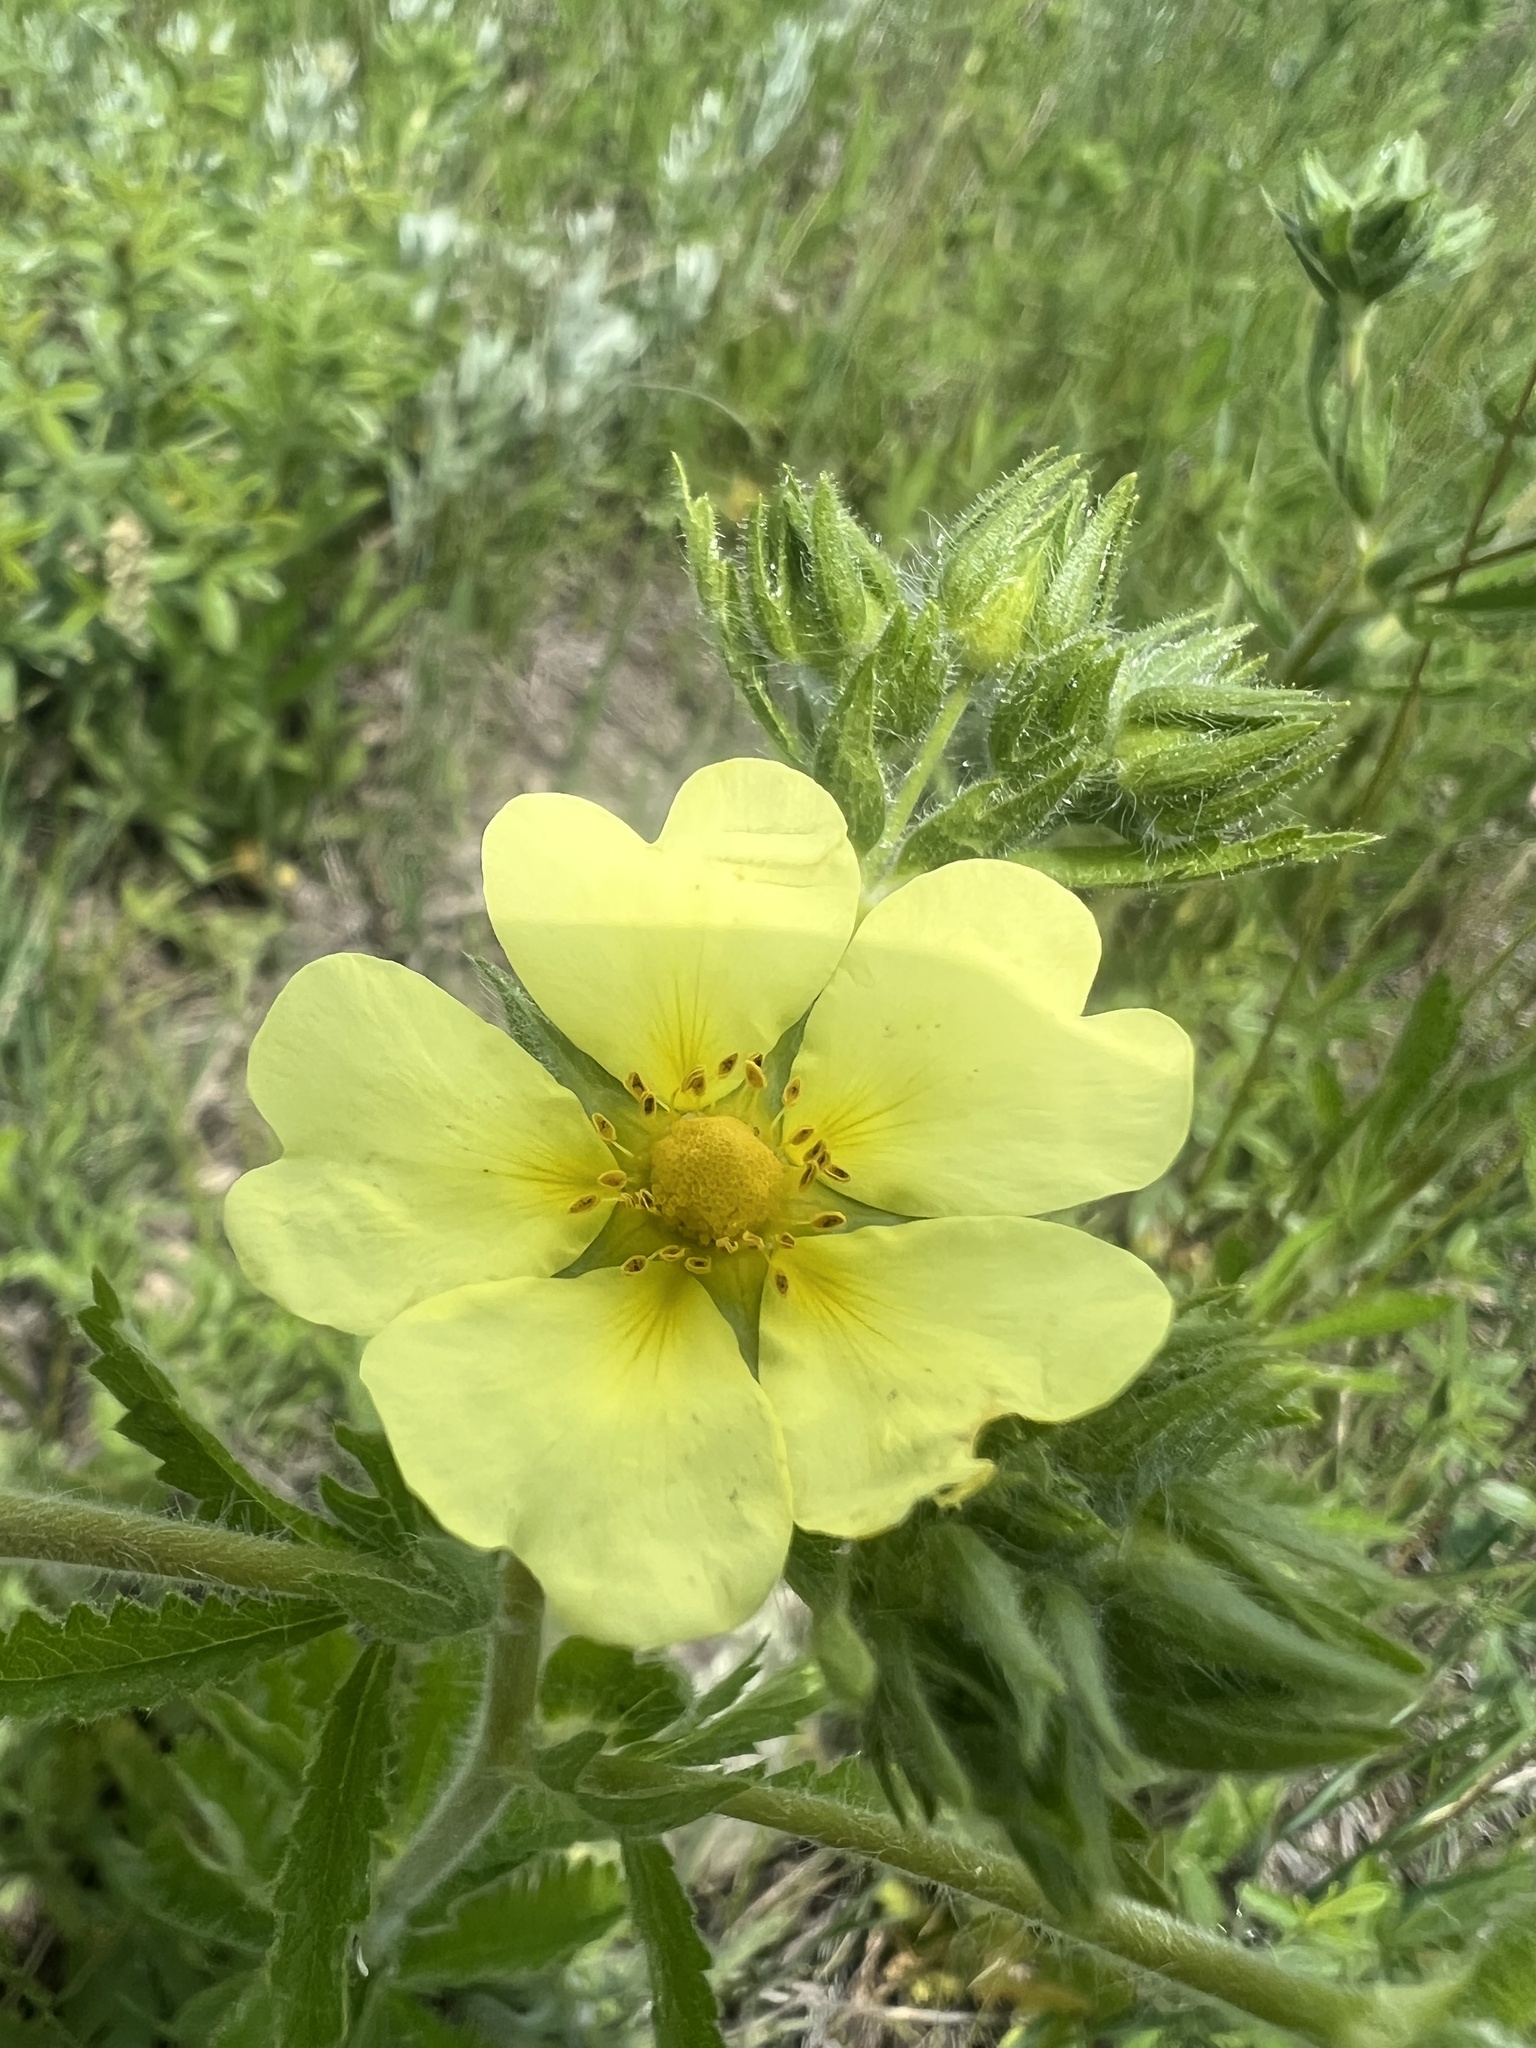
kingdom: Plantae
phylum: Tracheophyta
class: Magnoliopsida
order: Rosales
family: Rosaceae
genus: Potentilla
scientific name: Potentilla recta
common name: Sulphur cinquefoil
